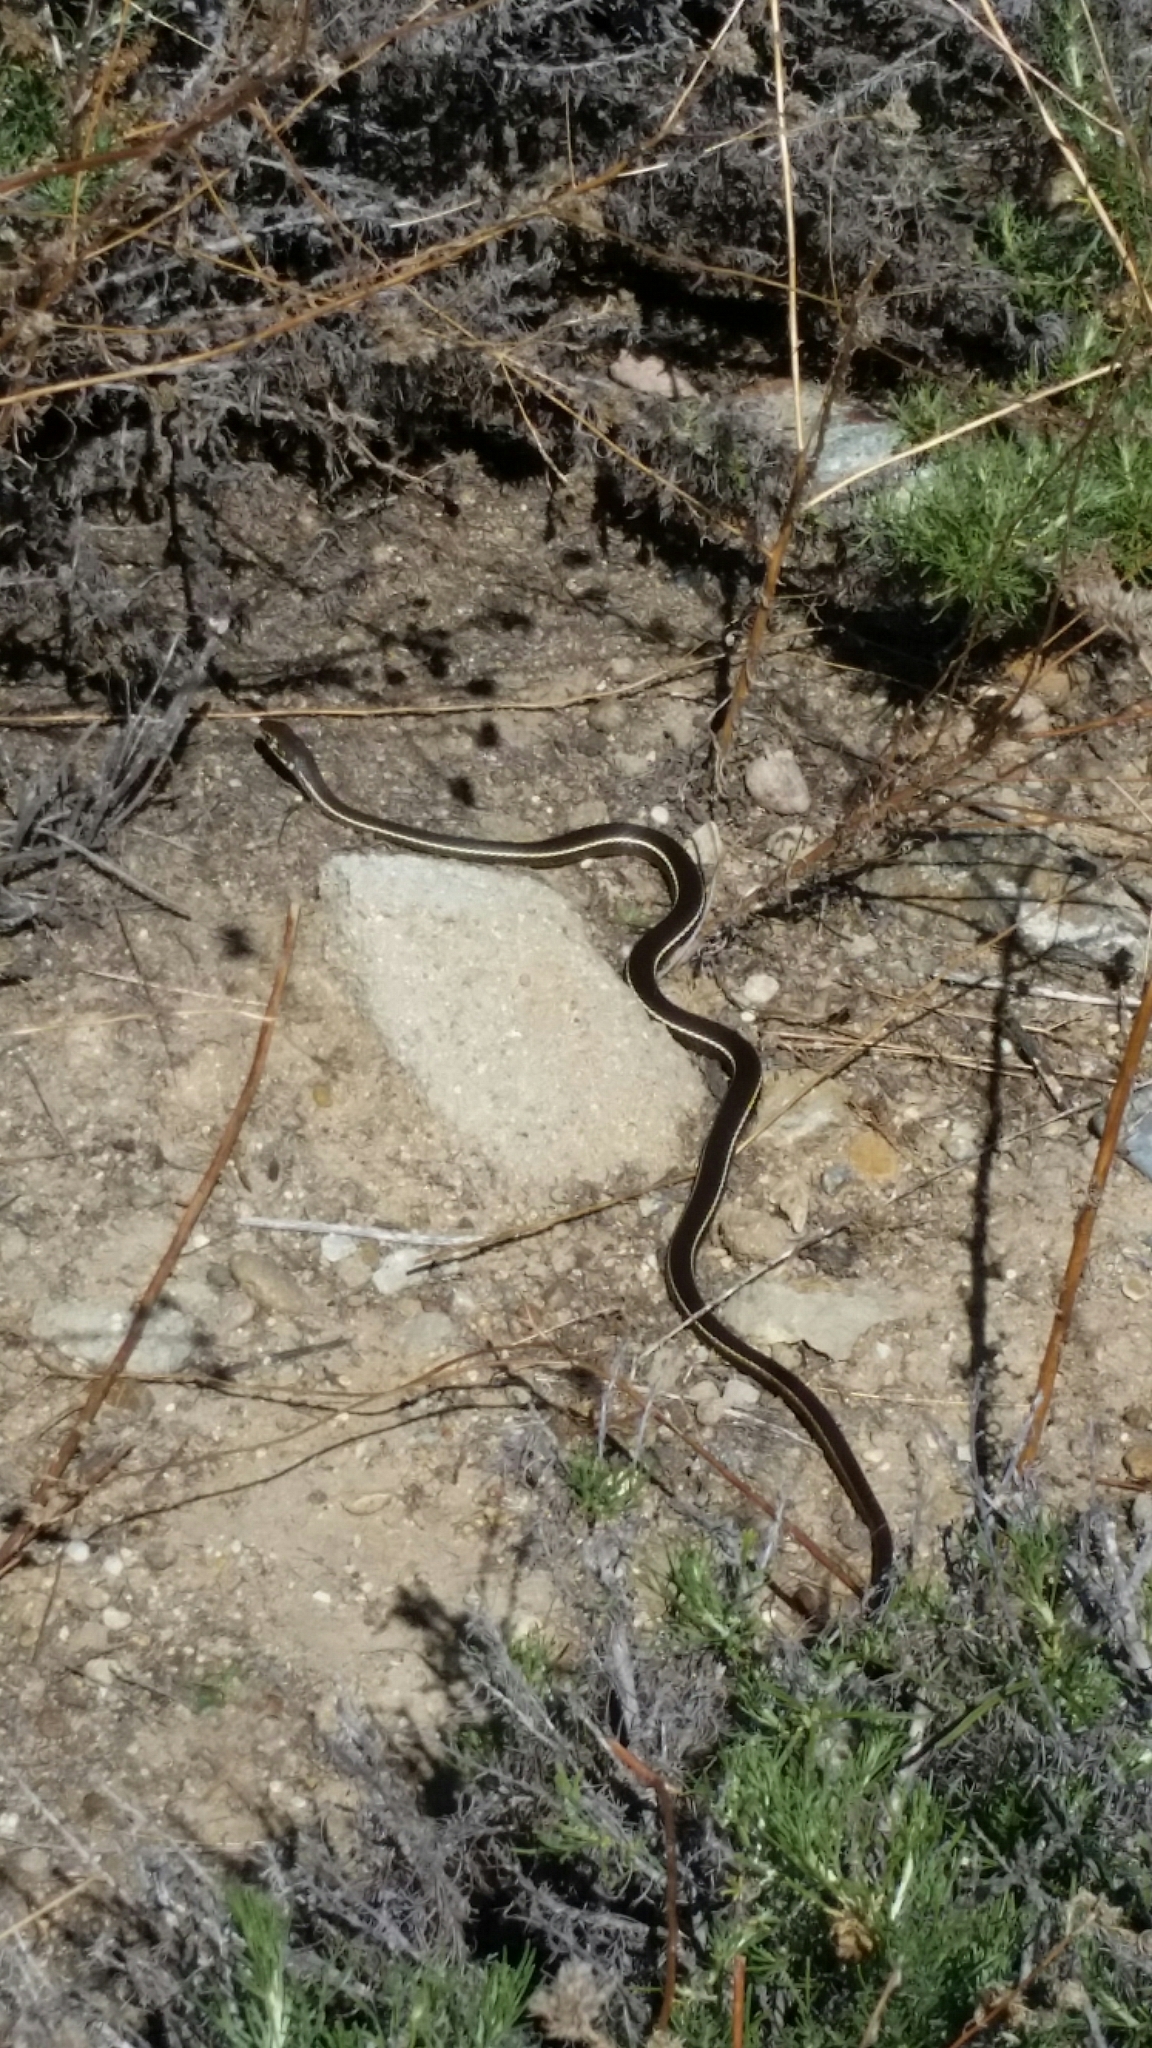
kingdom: Animalia
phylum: Chordata
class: Squamata
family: Colubridae
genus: Masticophis
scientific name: Masticophis lateralis
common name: Striped racer
